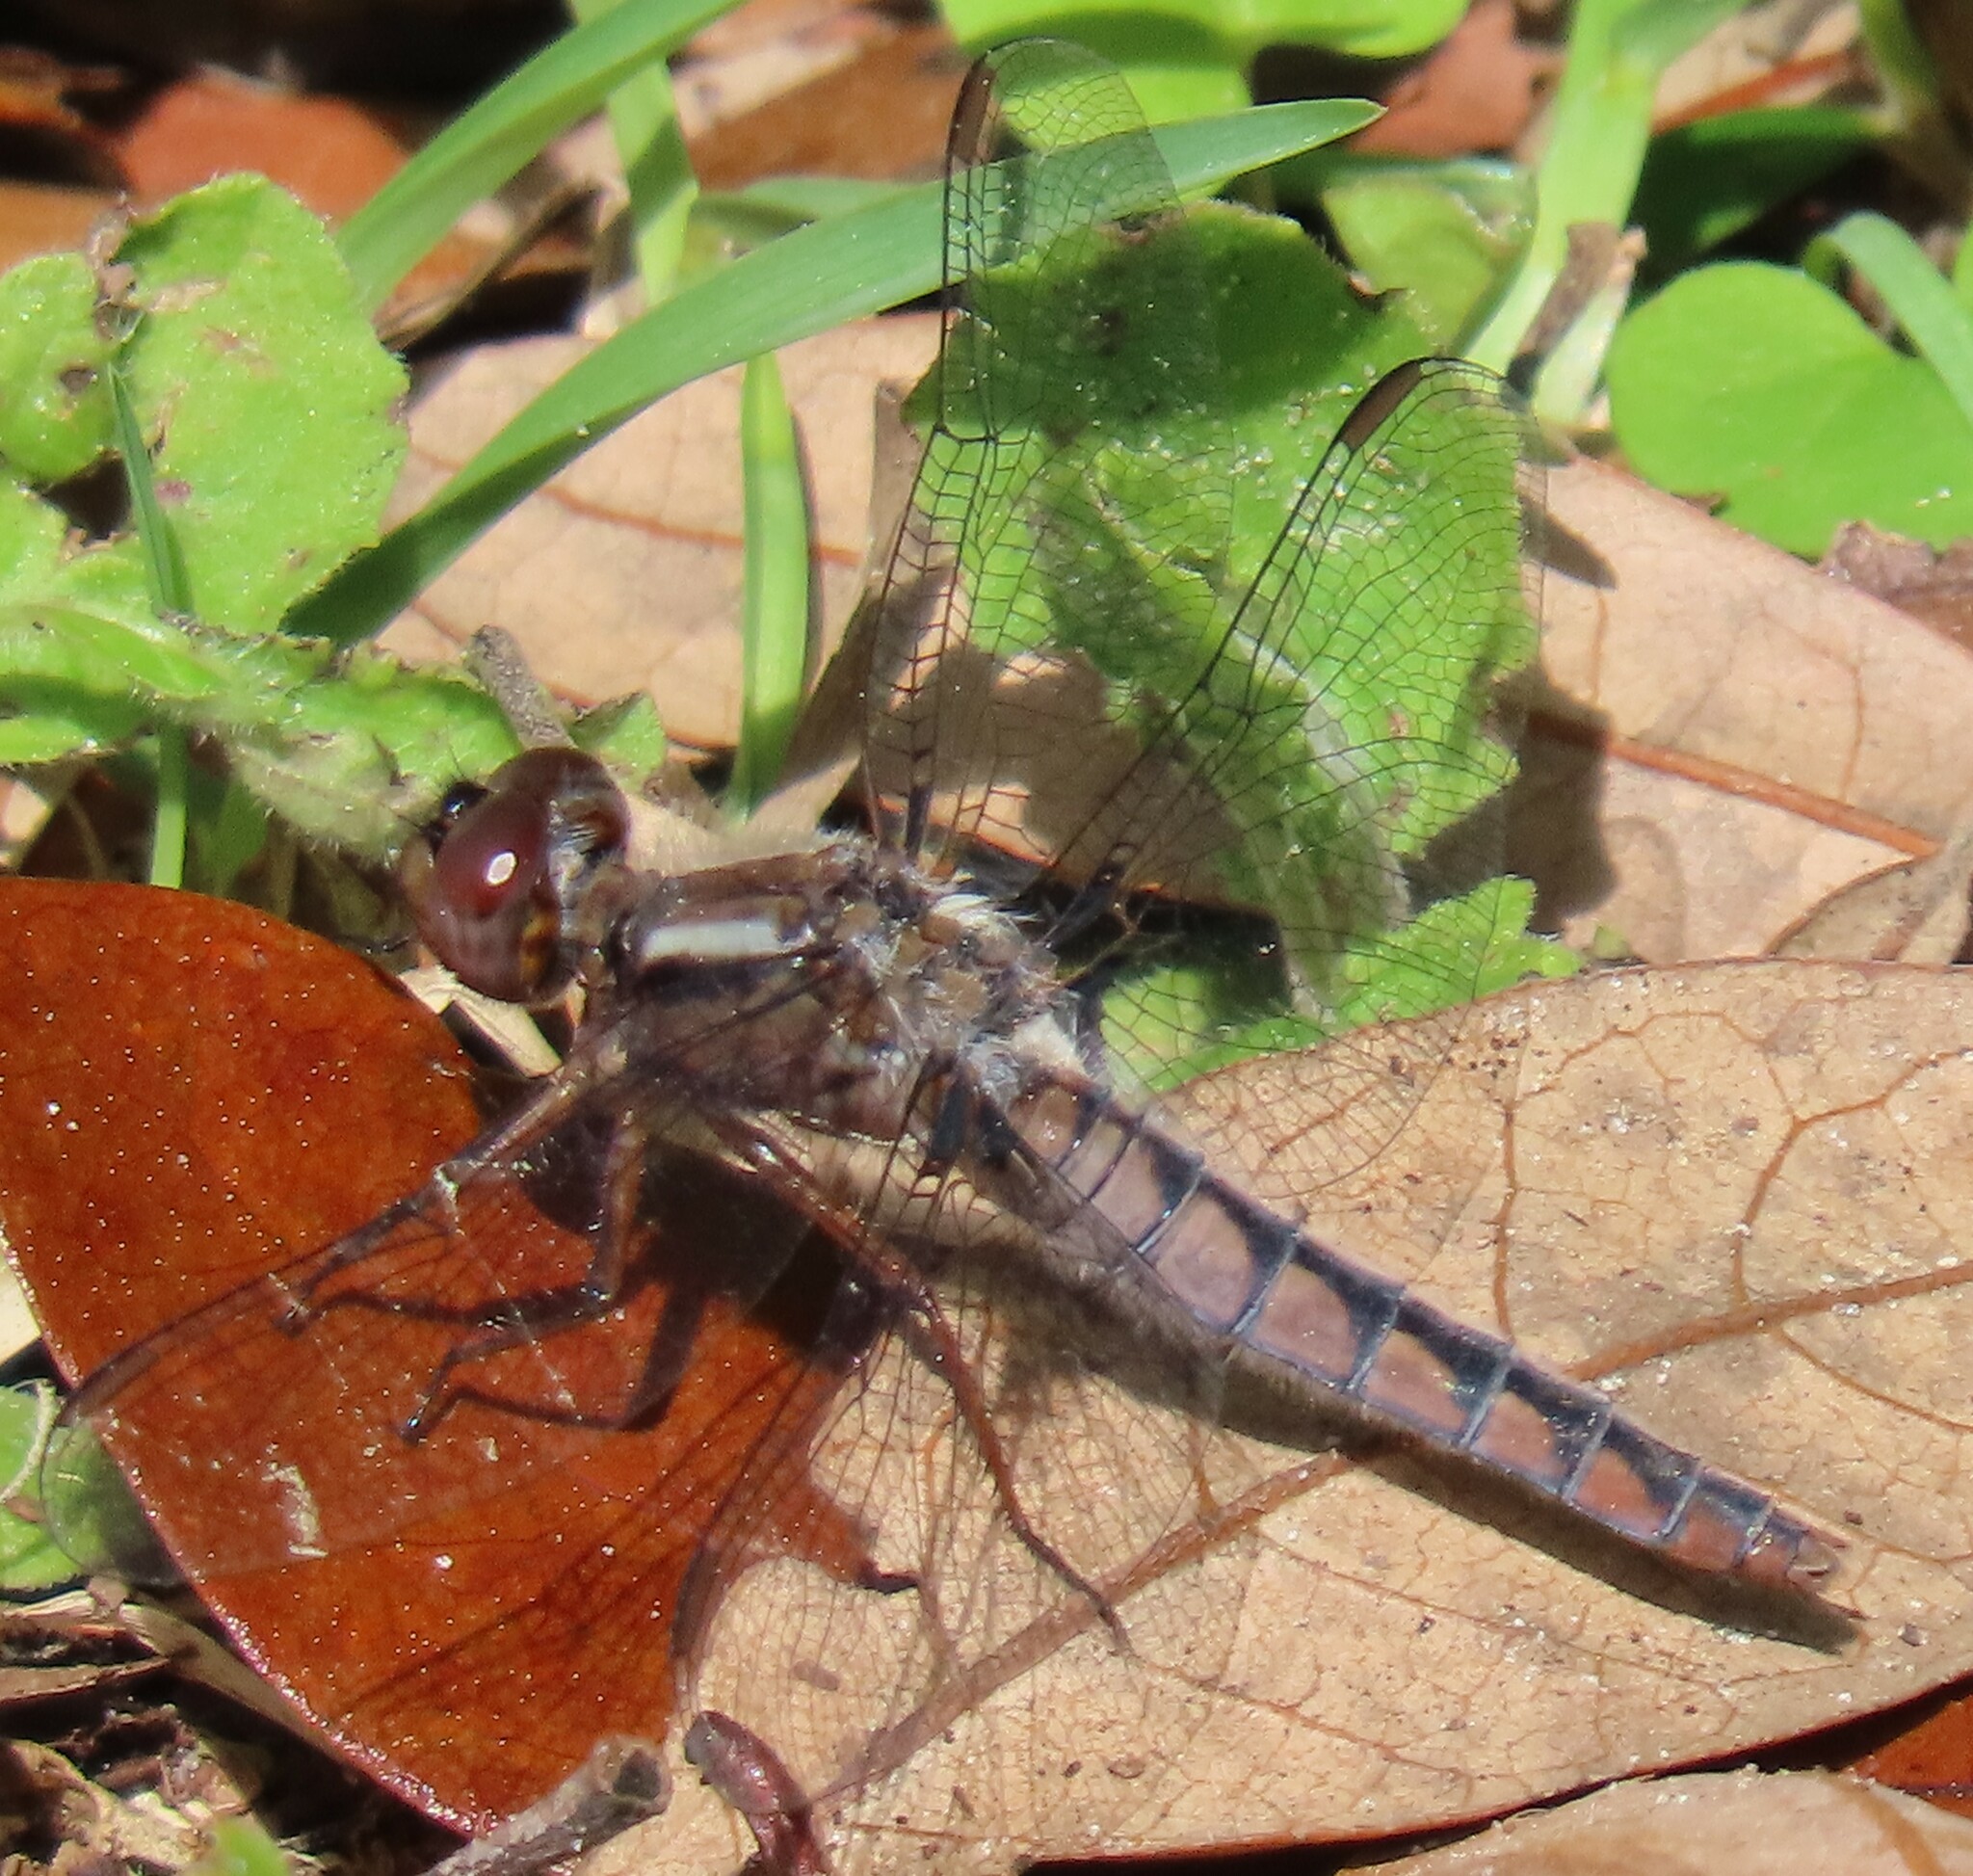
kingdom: Animalia
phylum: Arthropoda
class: Insecta
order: Odonata
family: Libellulidae
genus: Ladona
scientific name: Ladona deplanata
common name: Blue corporal
